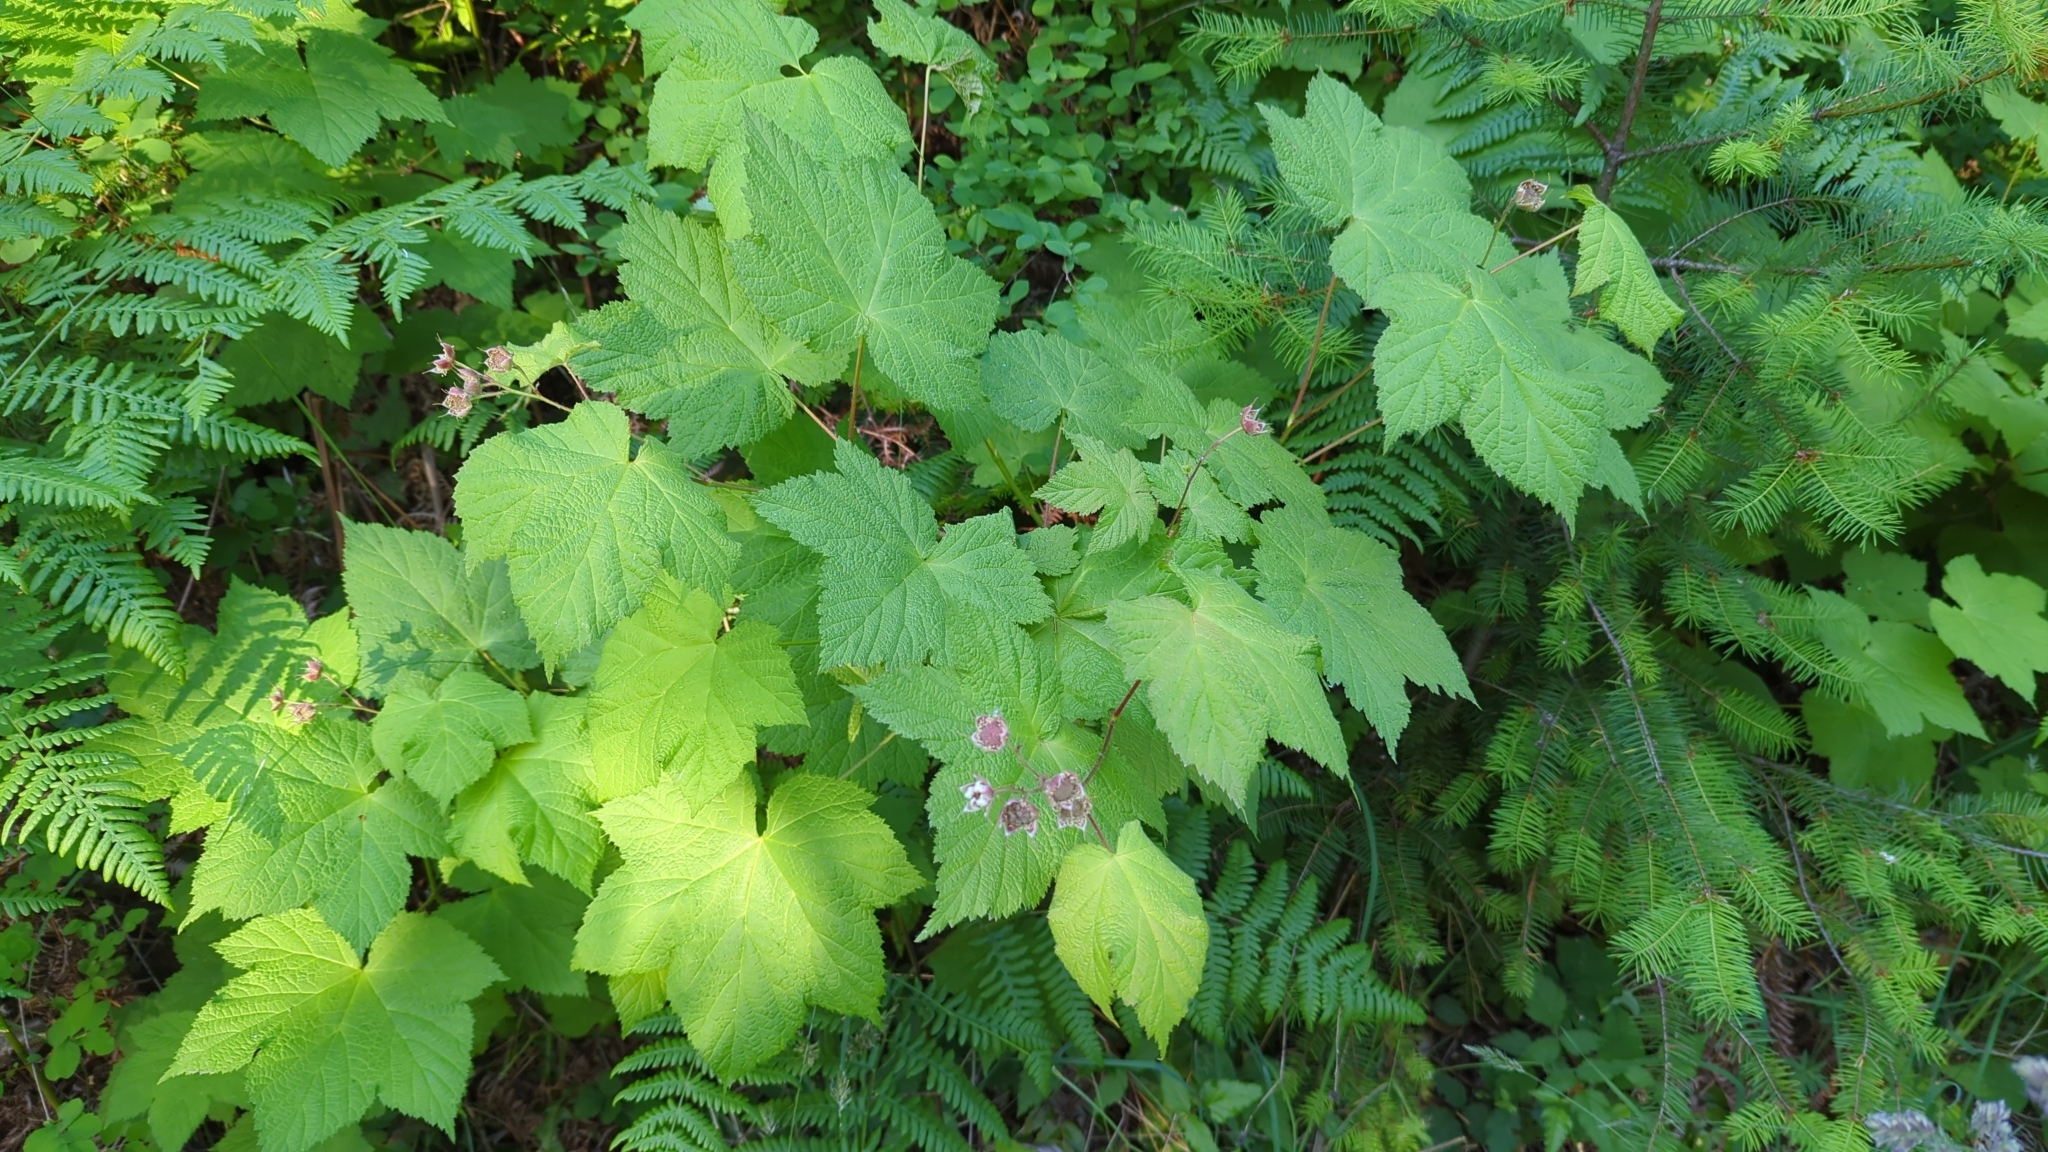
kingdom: Plantae
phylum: Tracheophyta
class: Magnoliopsida
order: Rosales
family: Rosaceae
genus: Rubus
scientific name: Rubus parviflorus
